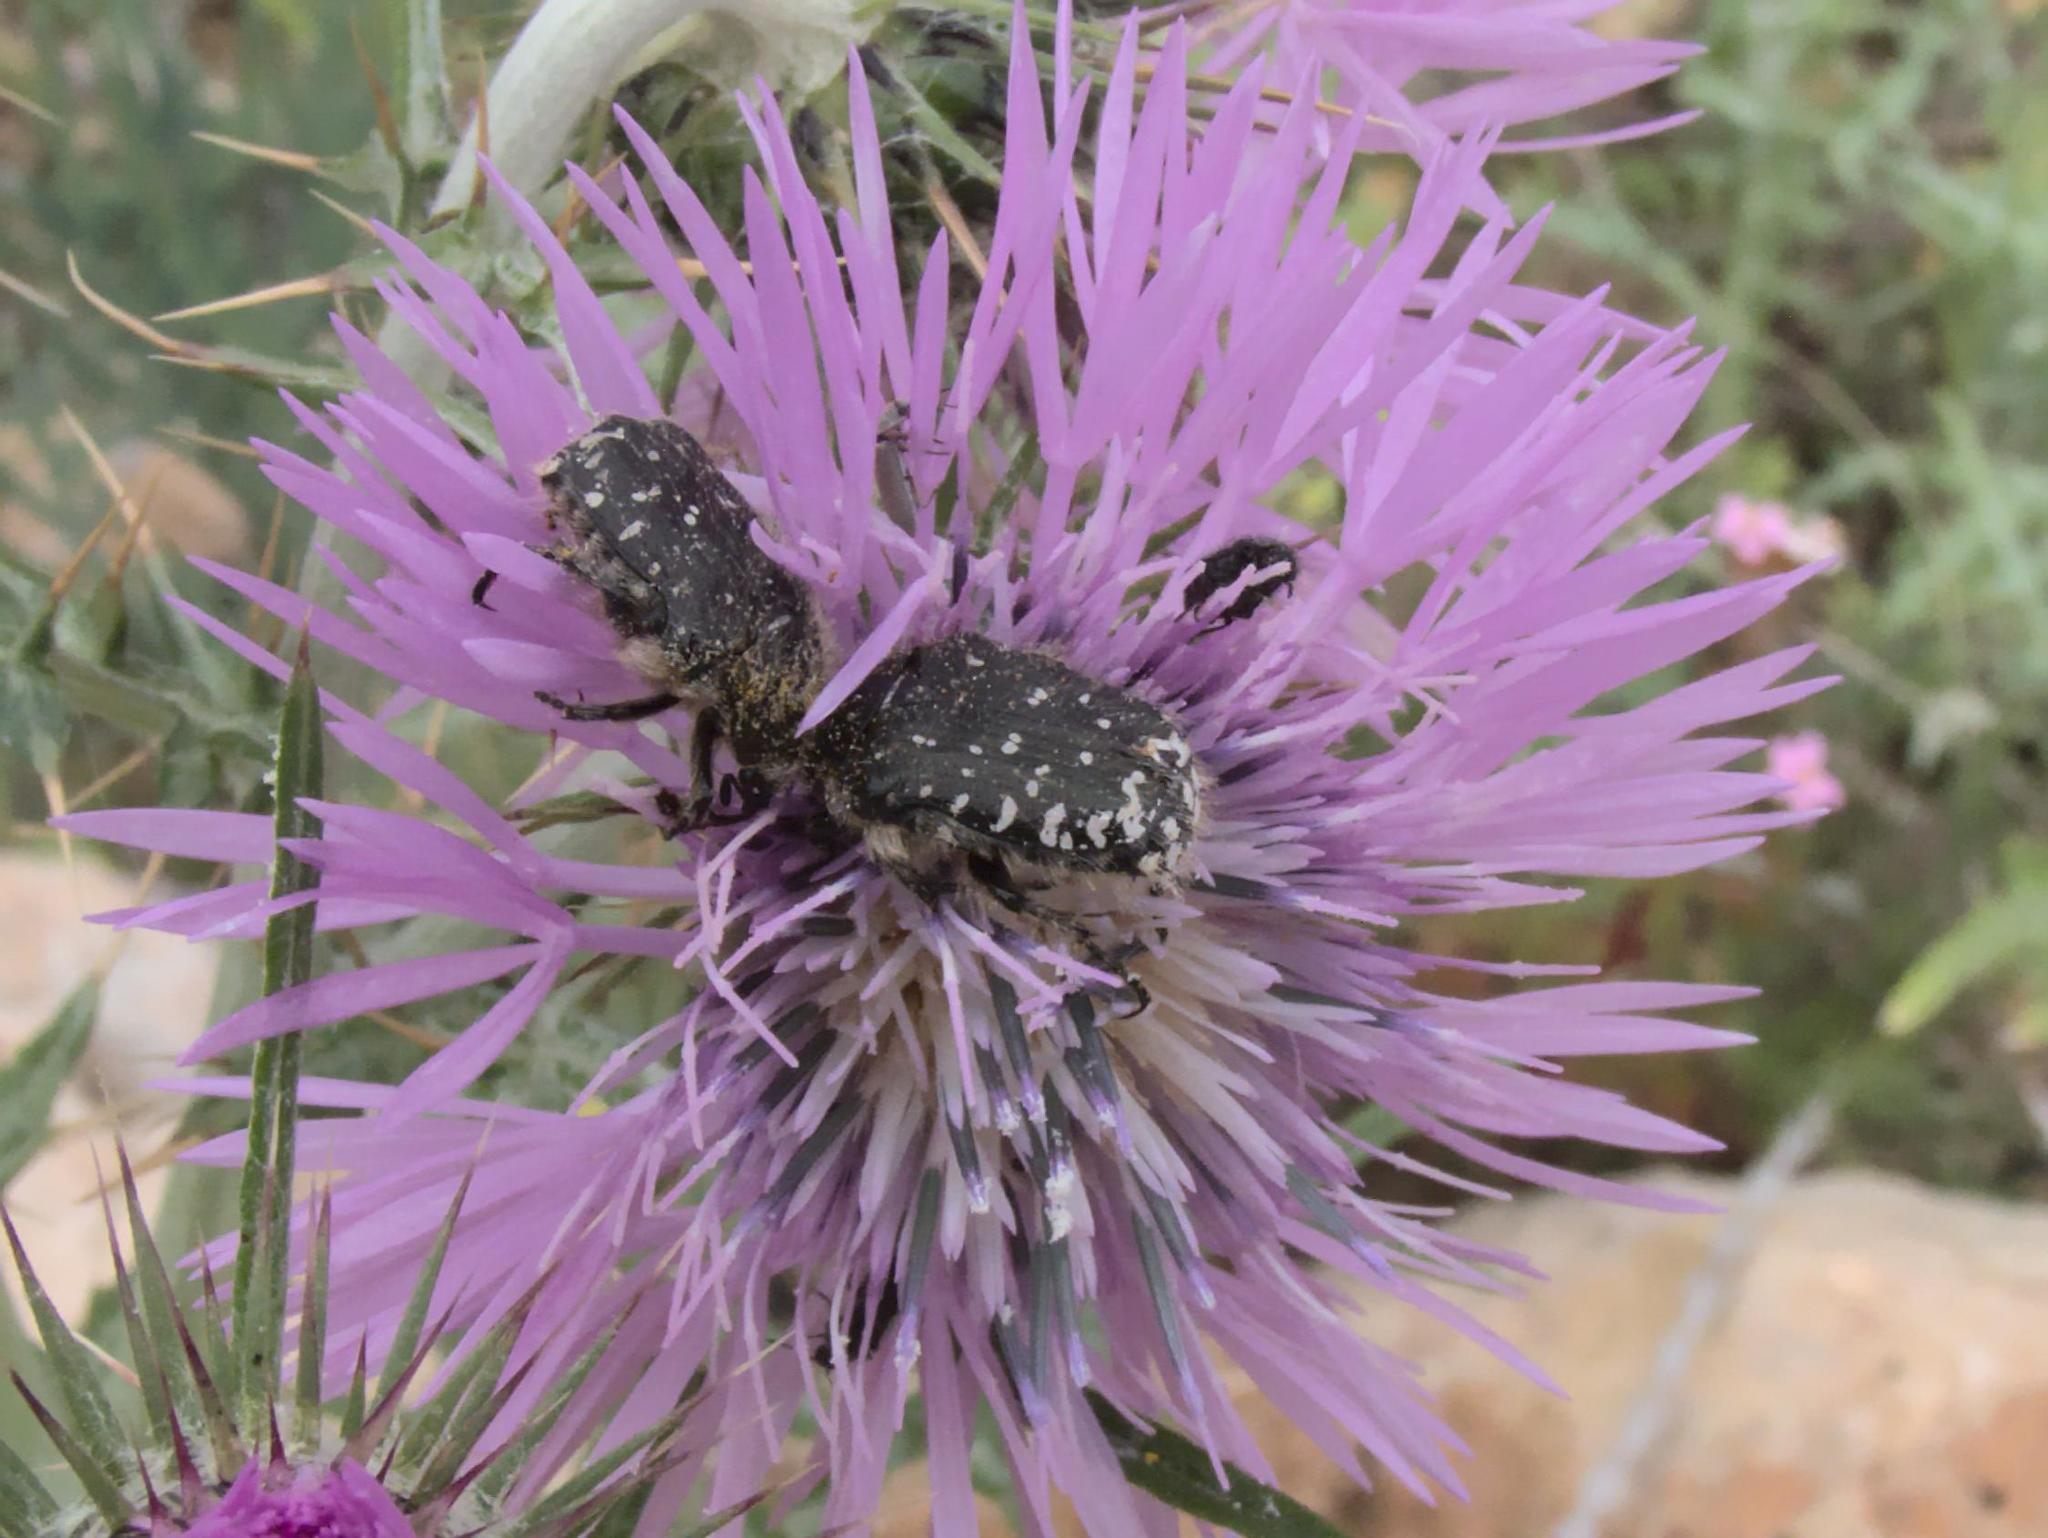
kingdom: Animalia
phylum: Arthropoda
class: Insecta
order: Coleoptera
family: Scarabaeidae
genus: Oxythyrea
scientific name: Oxythyrea funesta
